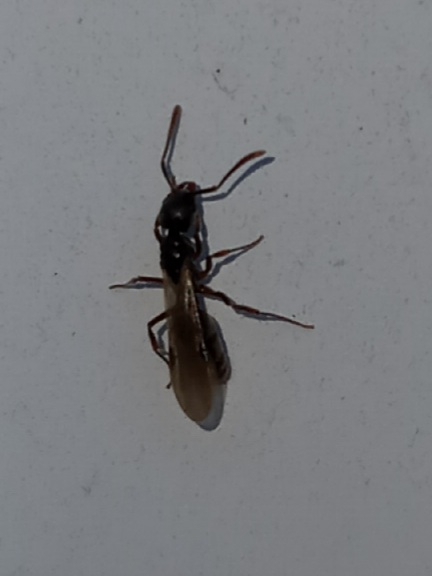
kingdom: Animalia
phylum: Arthropoda
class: Insecta
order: Hymenoptera
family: Formicidae
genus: Pachycondyla
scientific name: Pachycondyla chinensis
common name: Asian needle ant
